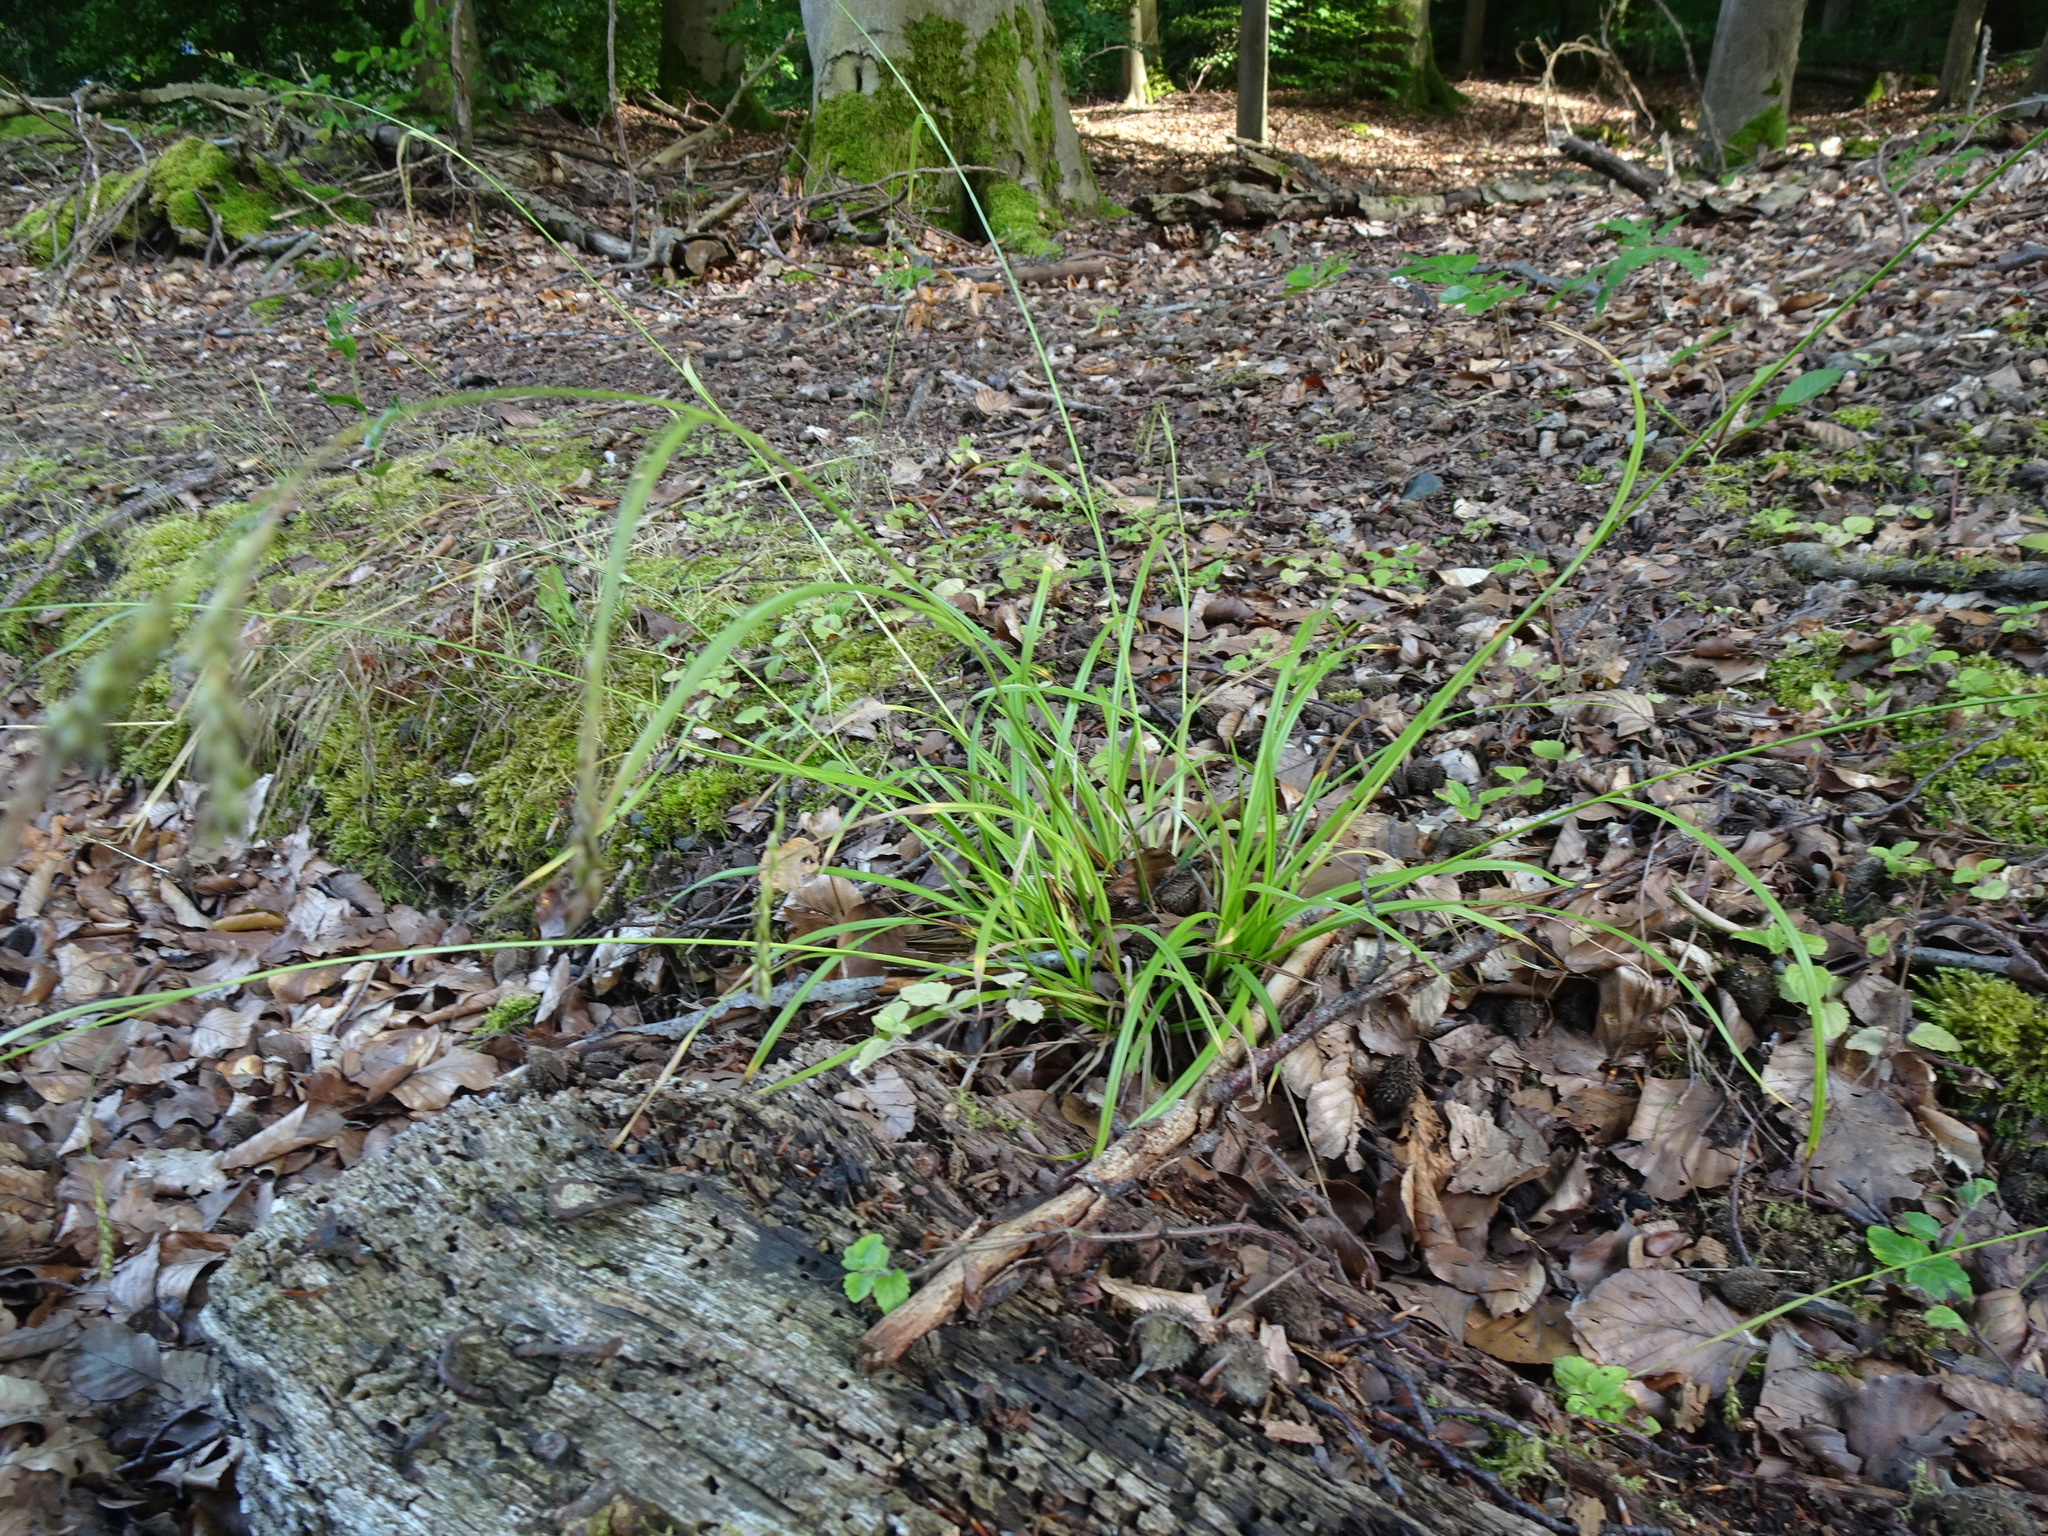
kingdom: Plantae
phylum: Tracheophyta
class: Liliopsida
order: Poales
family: Cyperaceae
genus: Carex
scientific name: Carex sylvatica
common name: Wood-sedge
